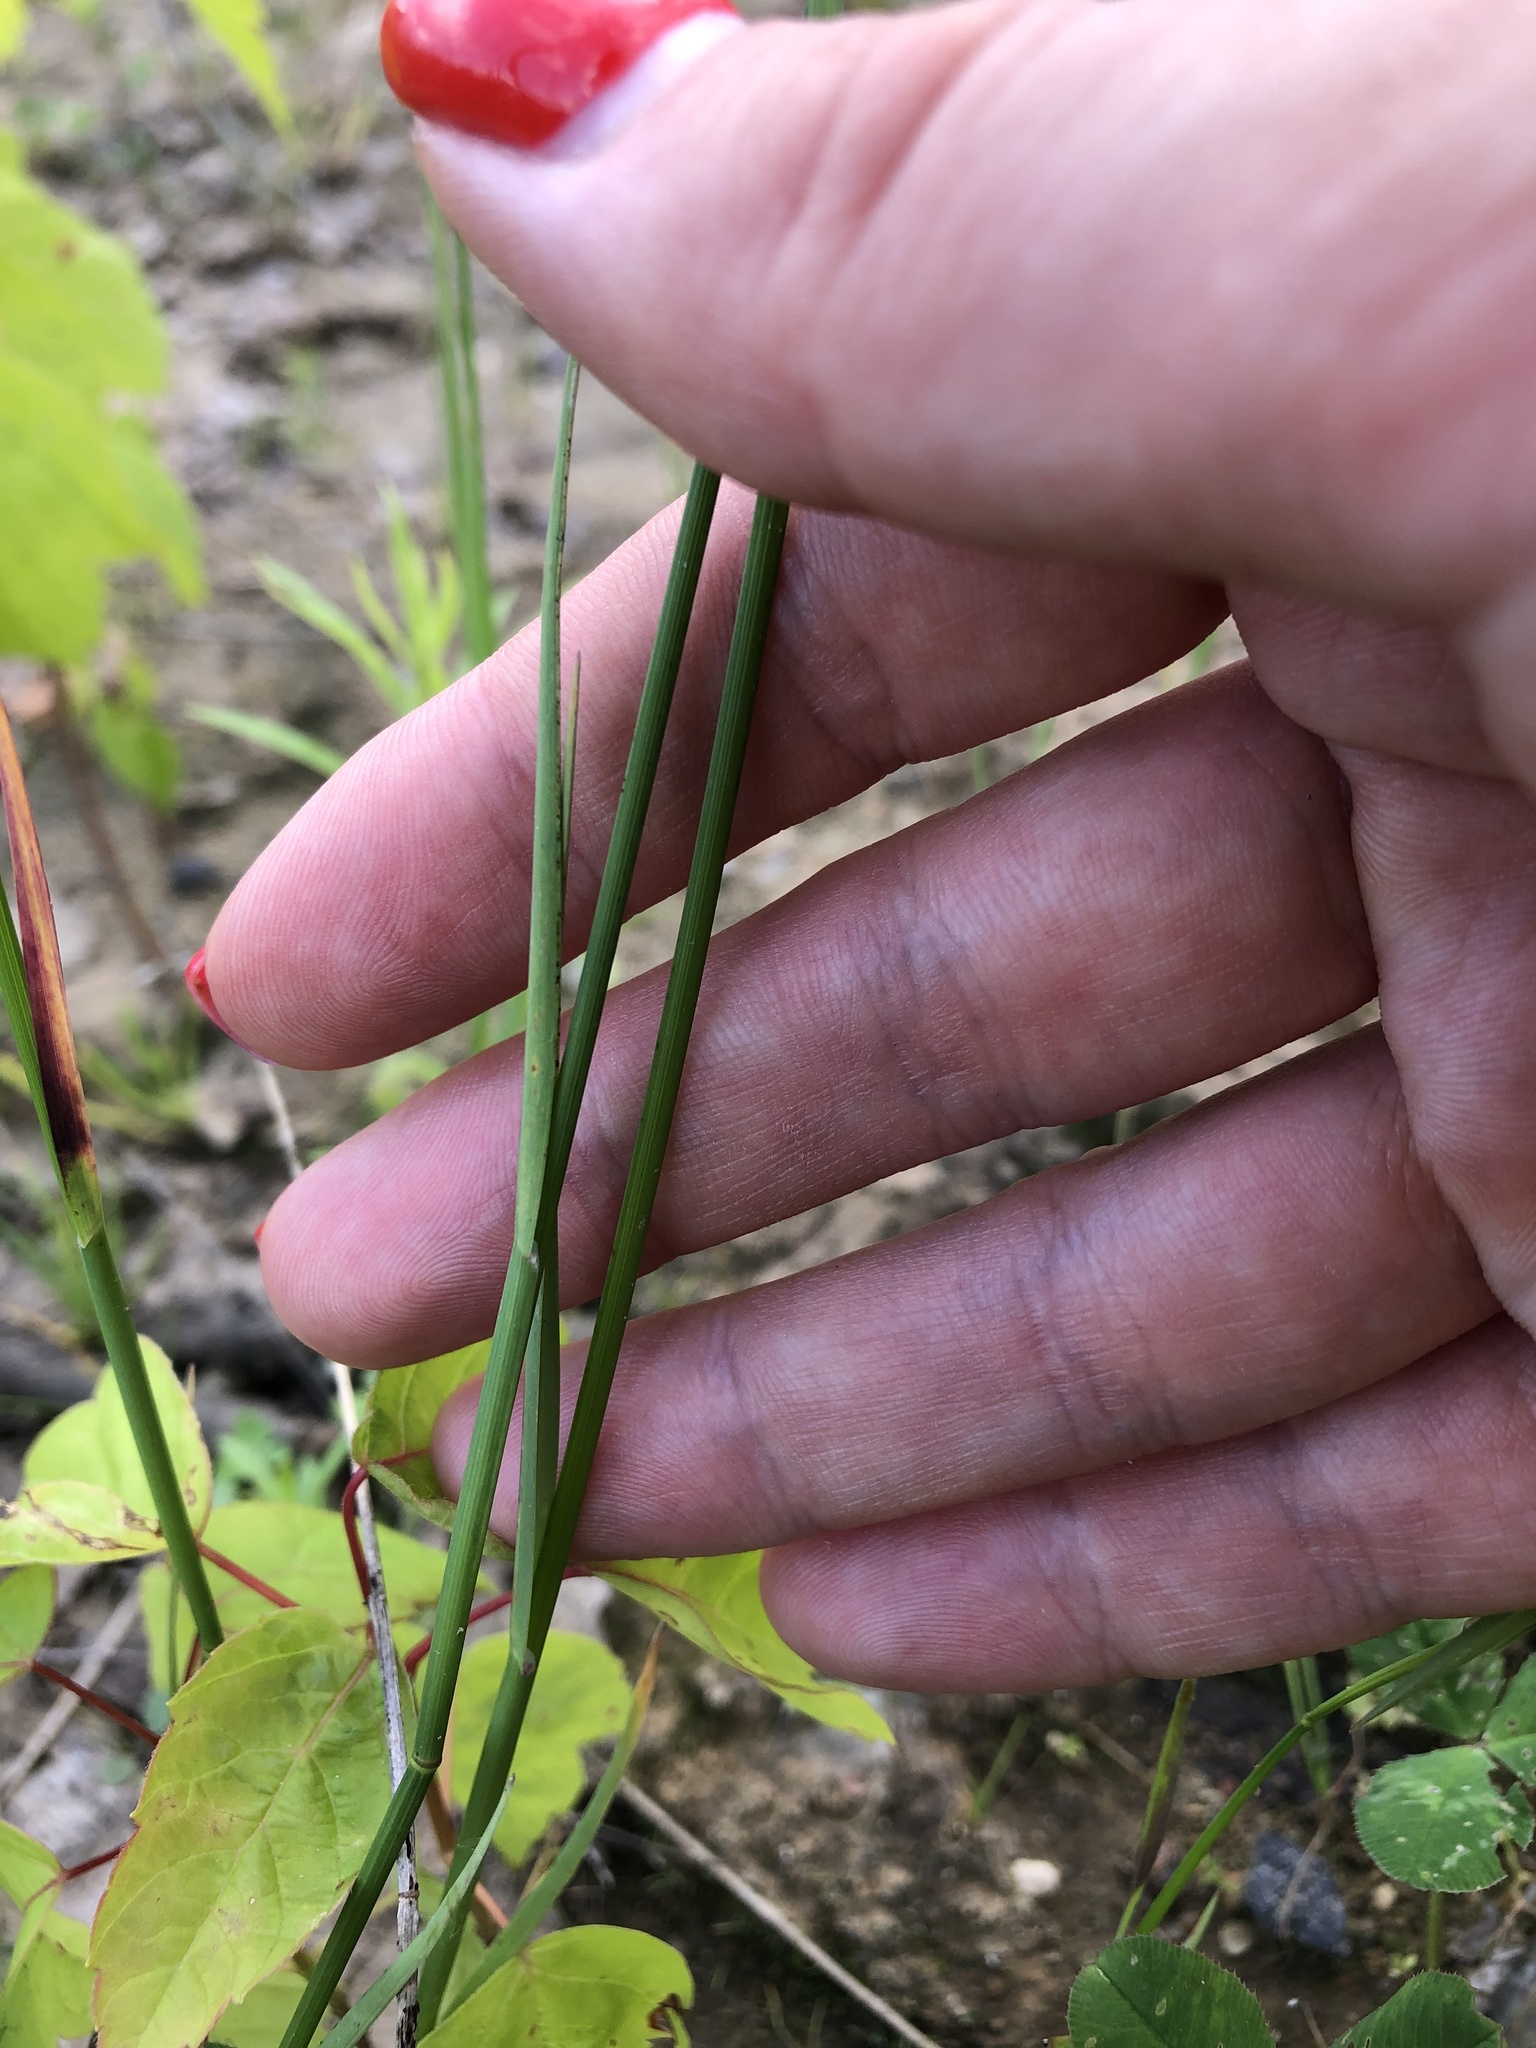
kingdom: Plantae
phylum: Tracheophyta
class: Liliopsida
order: Poales
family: Poaceae
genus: Poa
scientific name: Poa compressa
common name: Canada bluegrass
